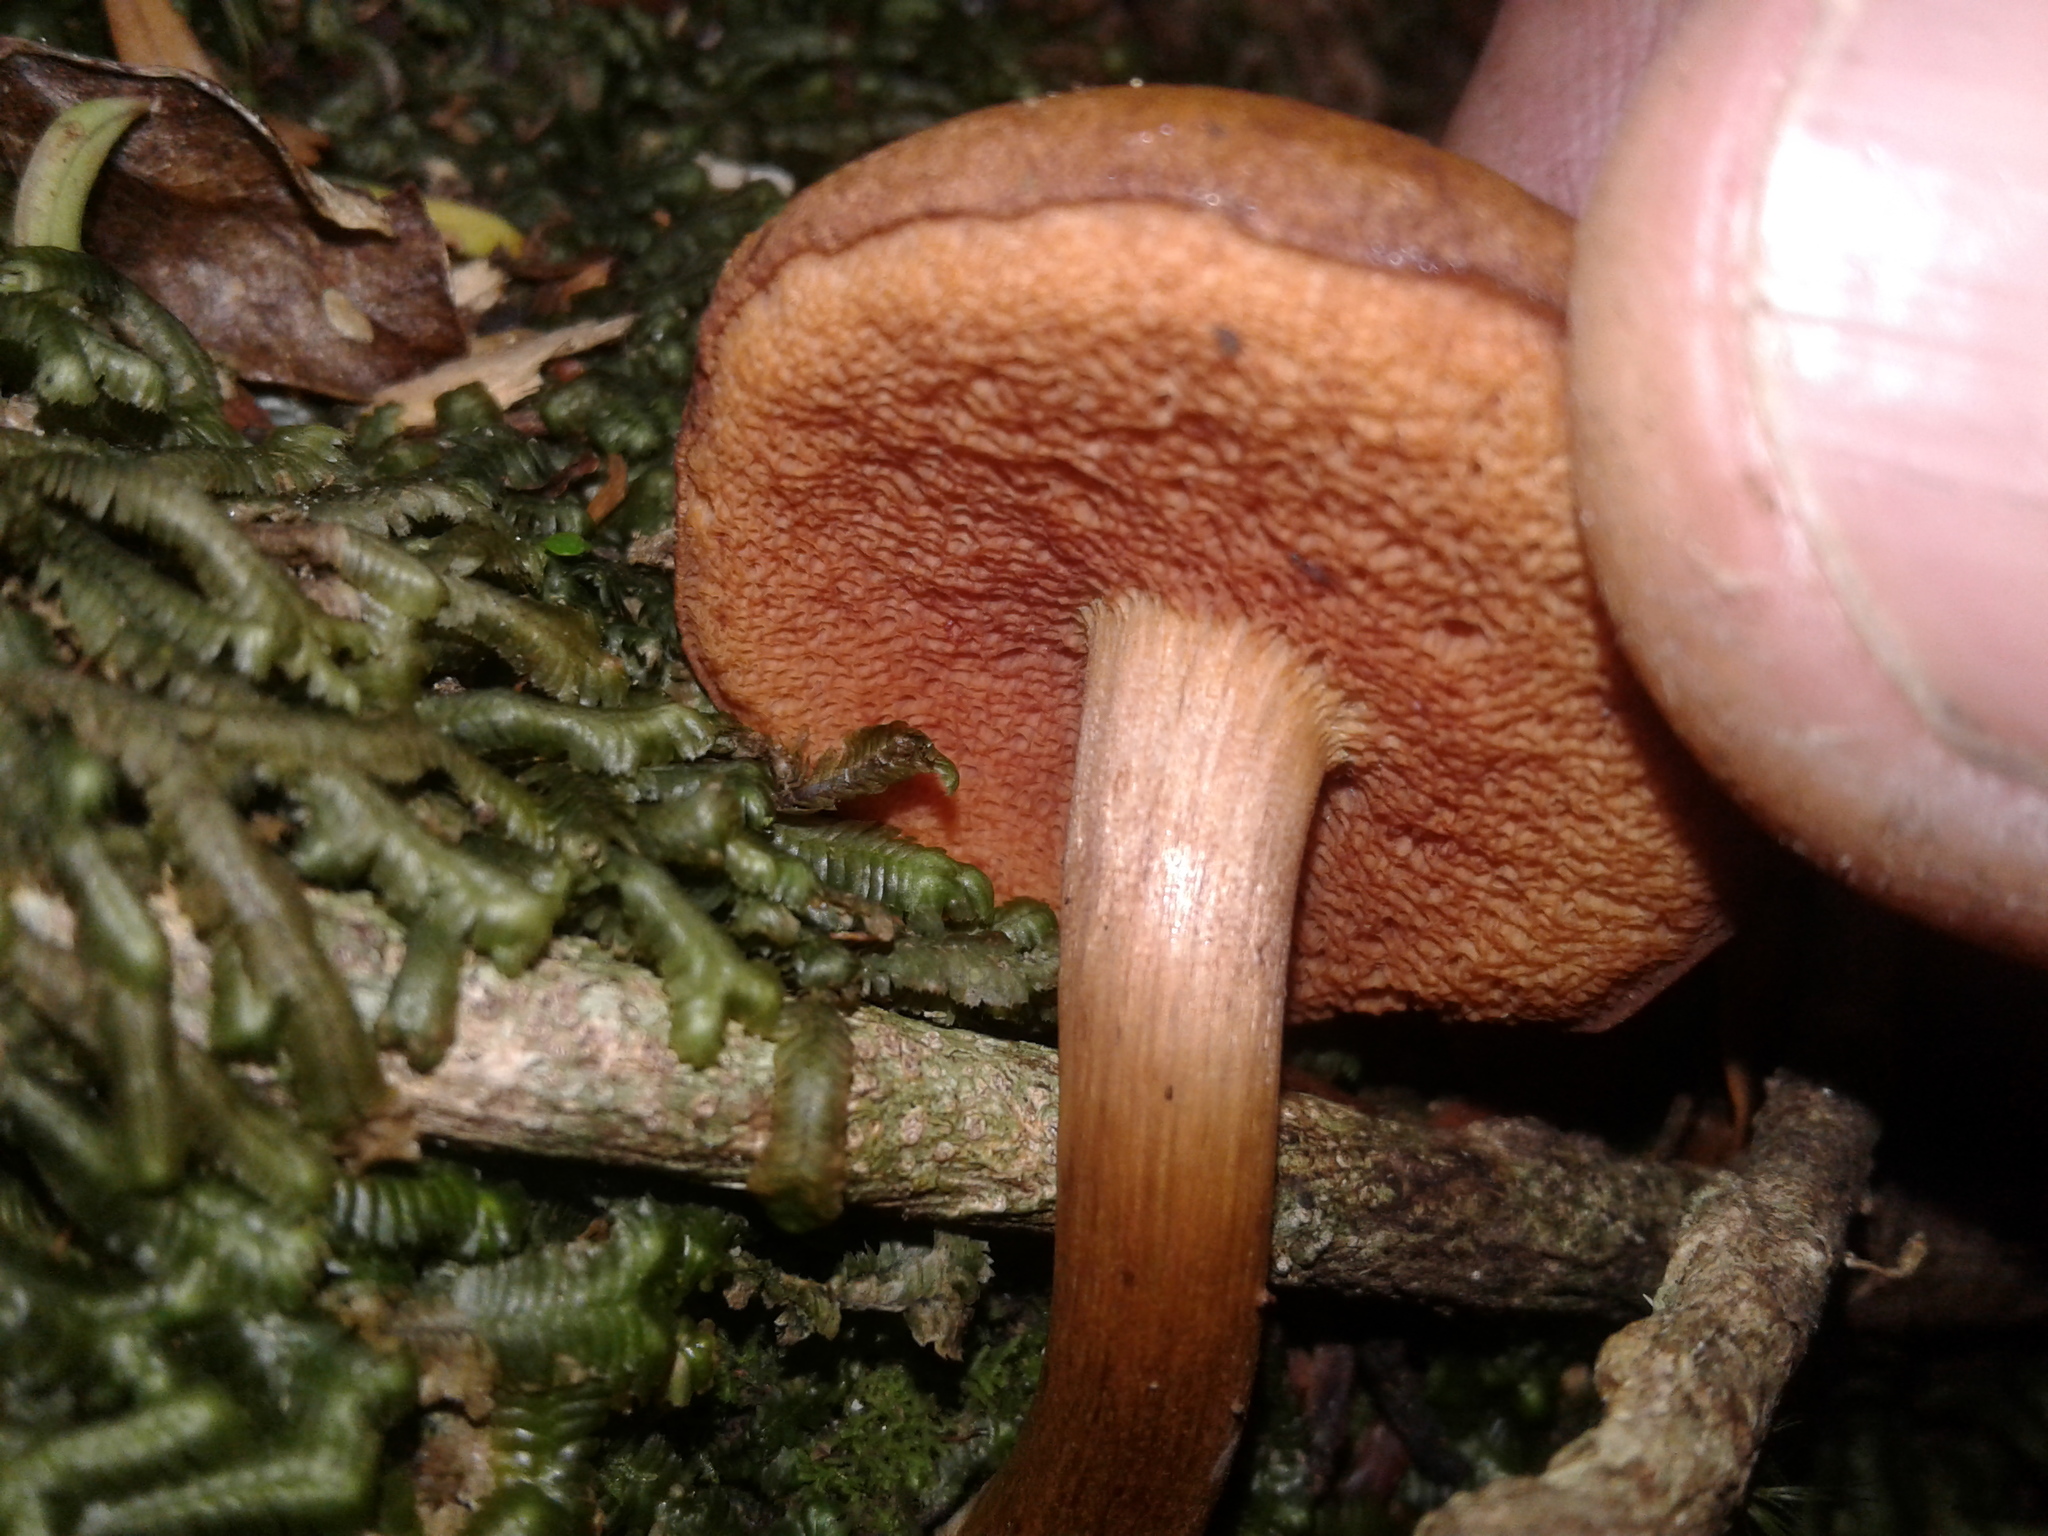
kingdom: Fungi
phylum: Basidiomycota
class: Agaricomycetes
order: Boletales
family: Boletaceae
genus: Chalciporus
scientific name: Chalciporus aurantiacus
